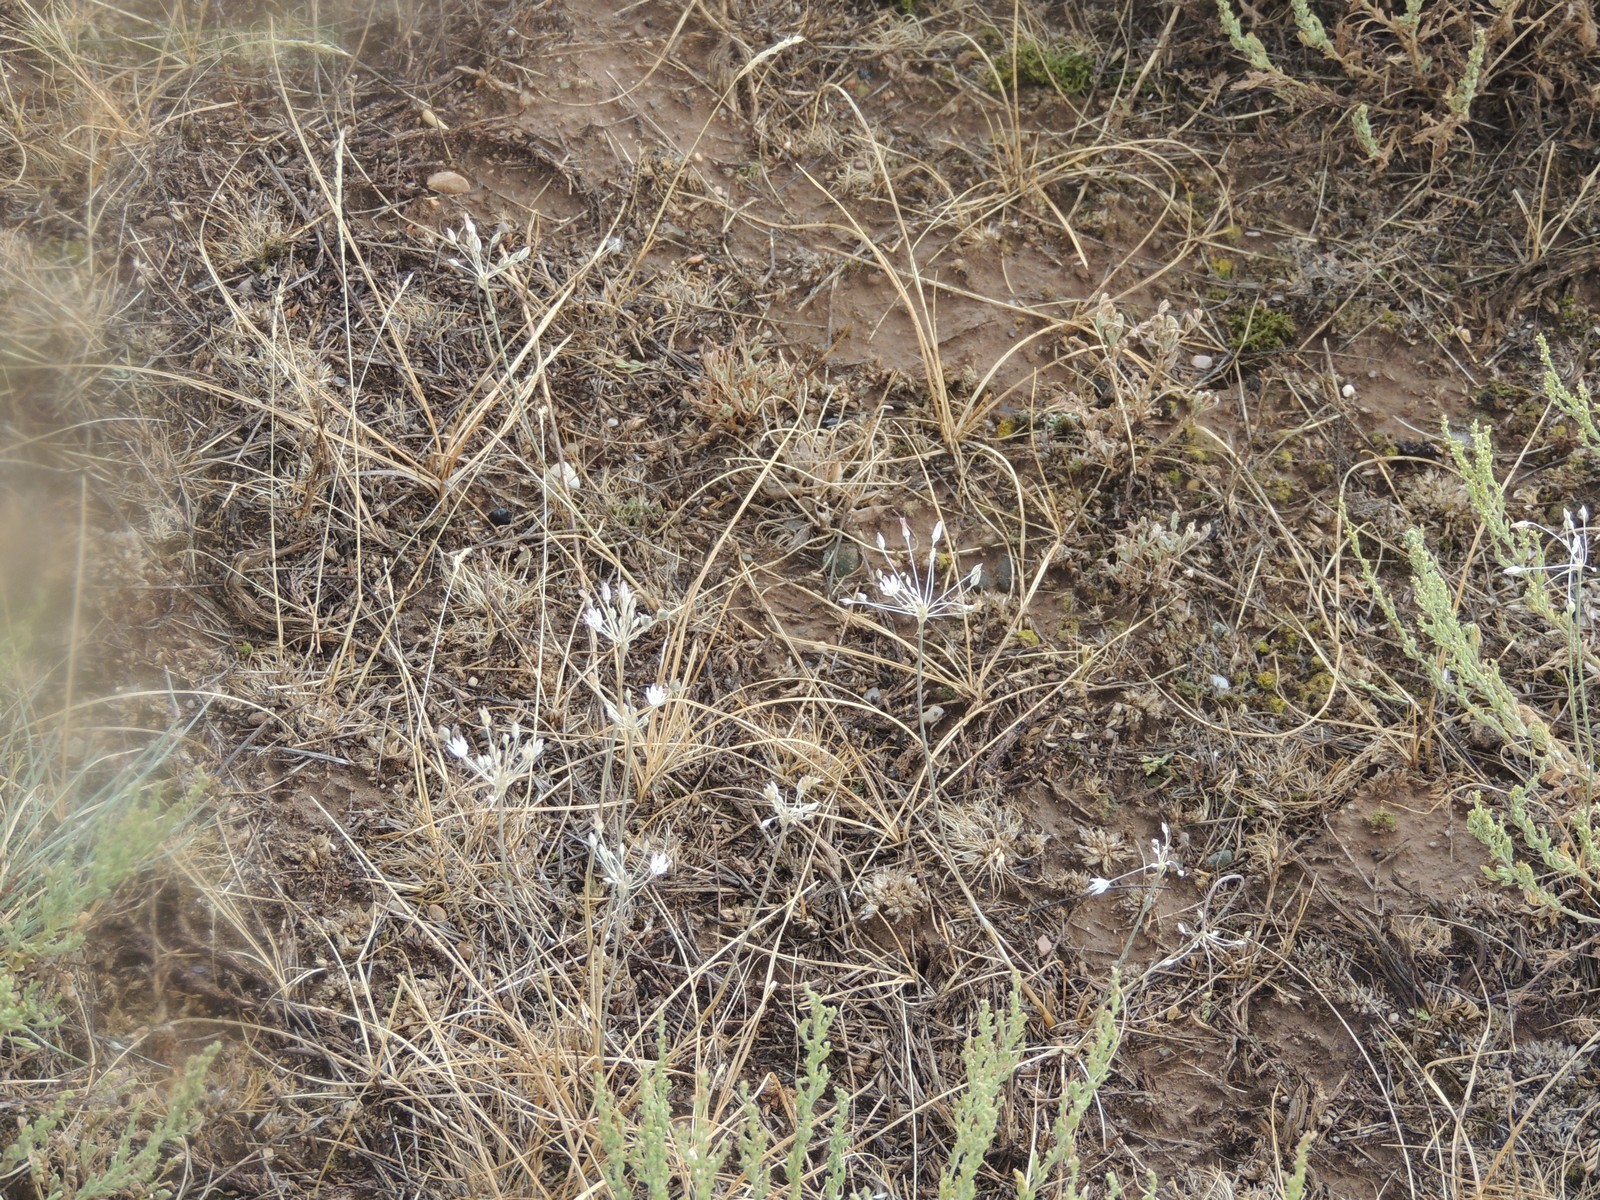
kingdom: Plantae
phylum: Tracheophyta
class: Liliopsida
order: Asparagales
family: Amaryllidaceae
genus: Allium
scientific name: Allium inaequale
